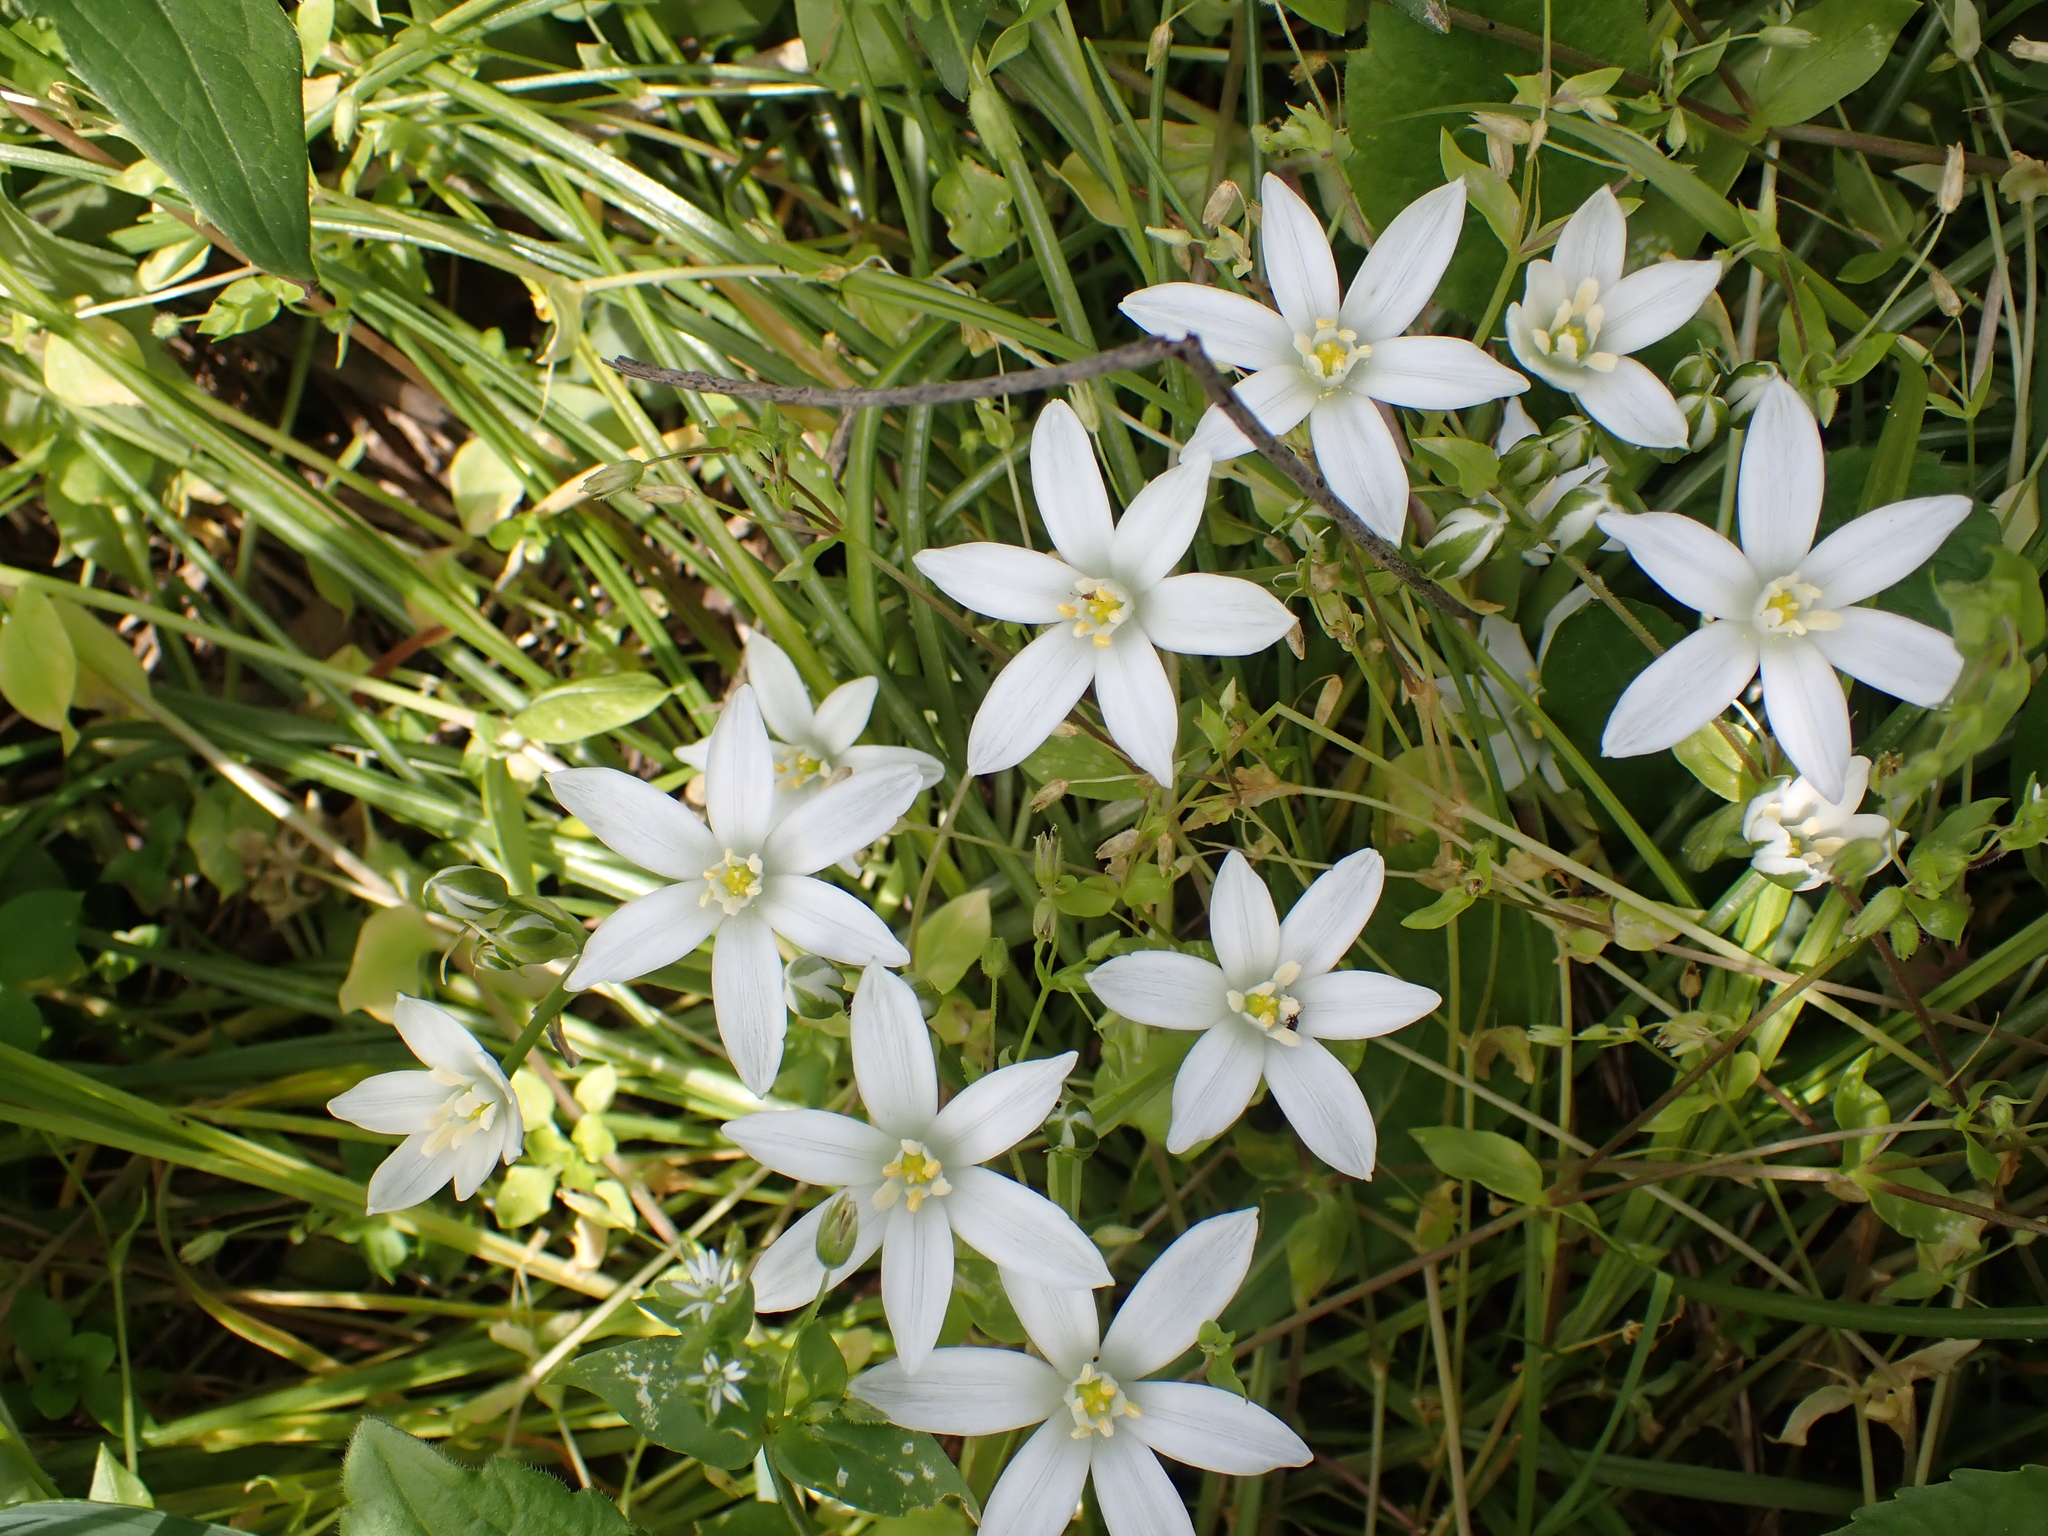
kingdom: Plantae
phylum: Tracheophyta
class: Liliopsida
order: Asparagales
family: Asparagaceae
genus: Ornithogalum
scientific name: Ornithogalum umbellatum
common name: Garden star-of-bethlehem
